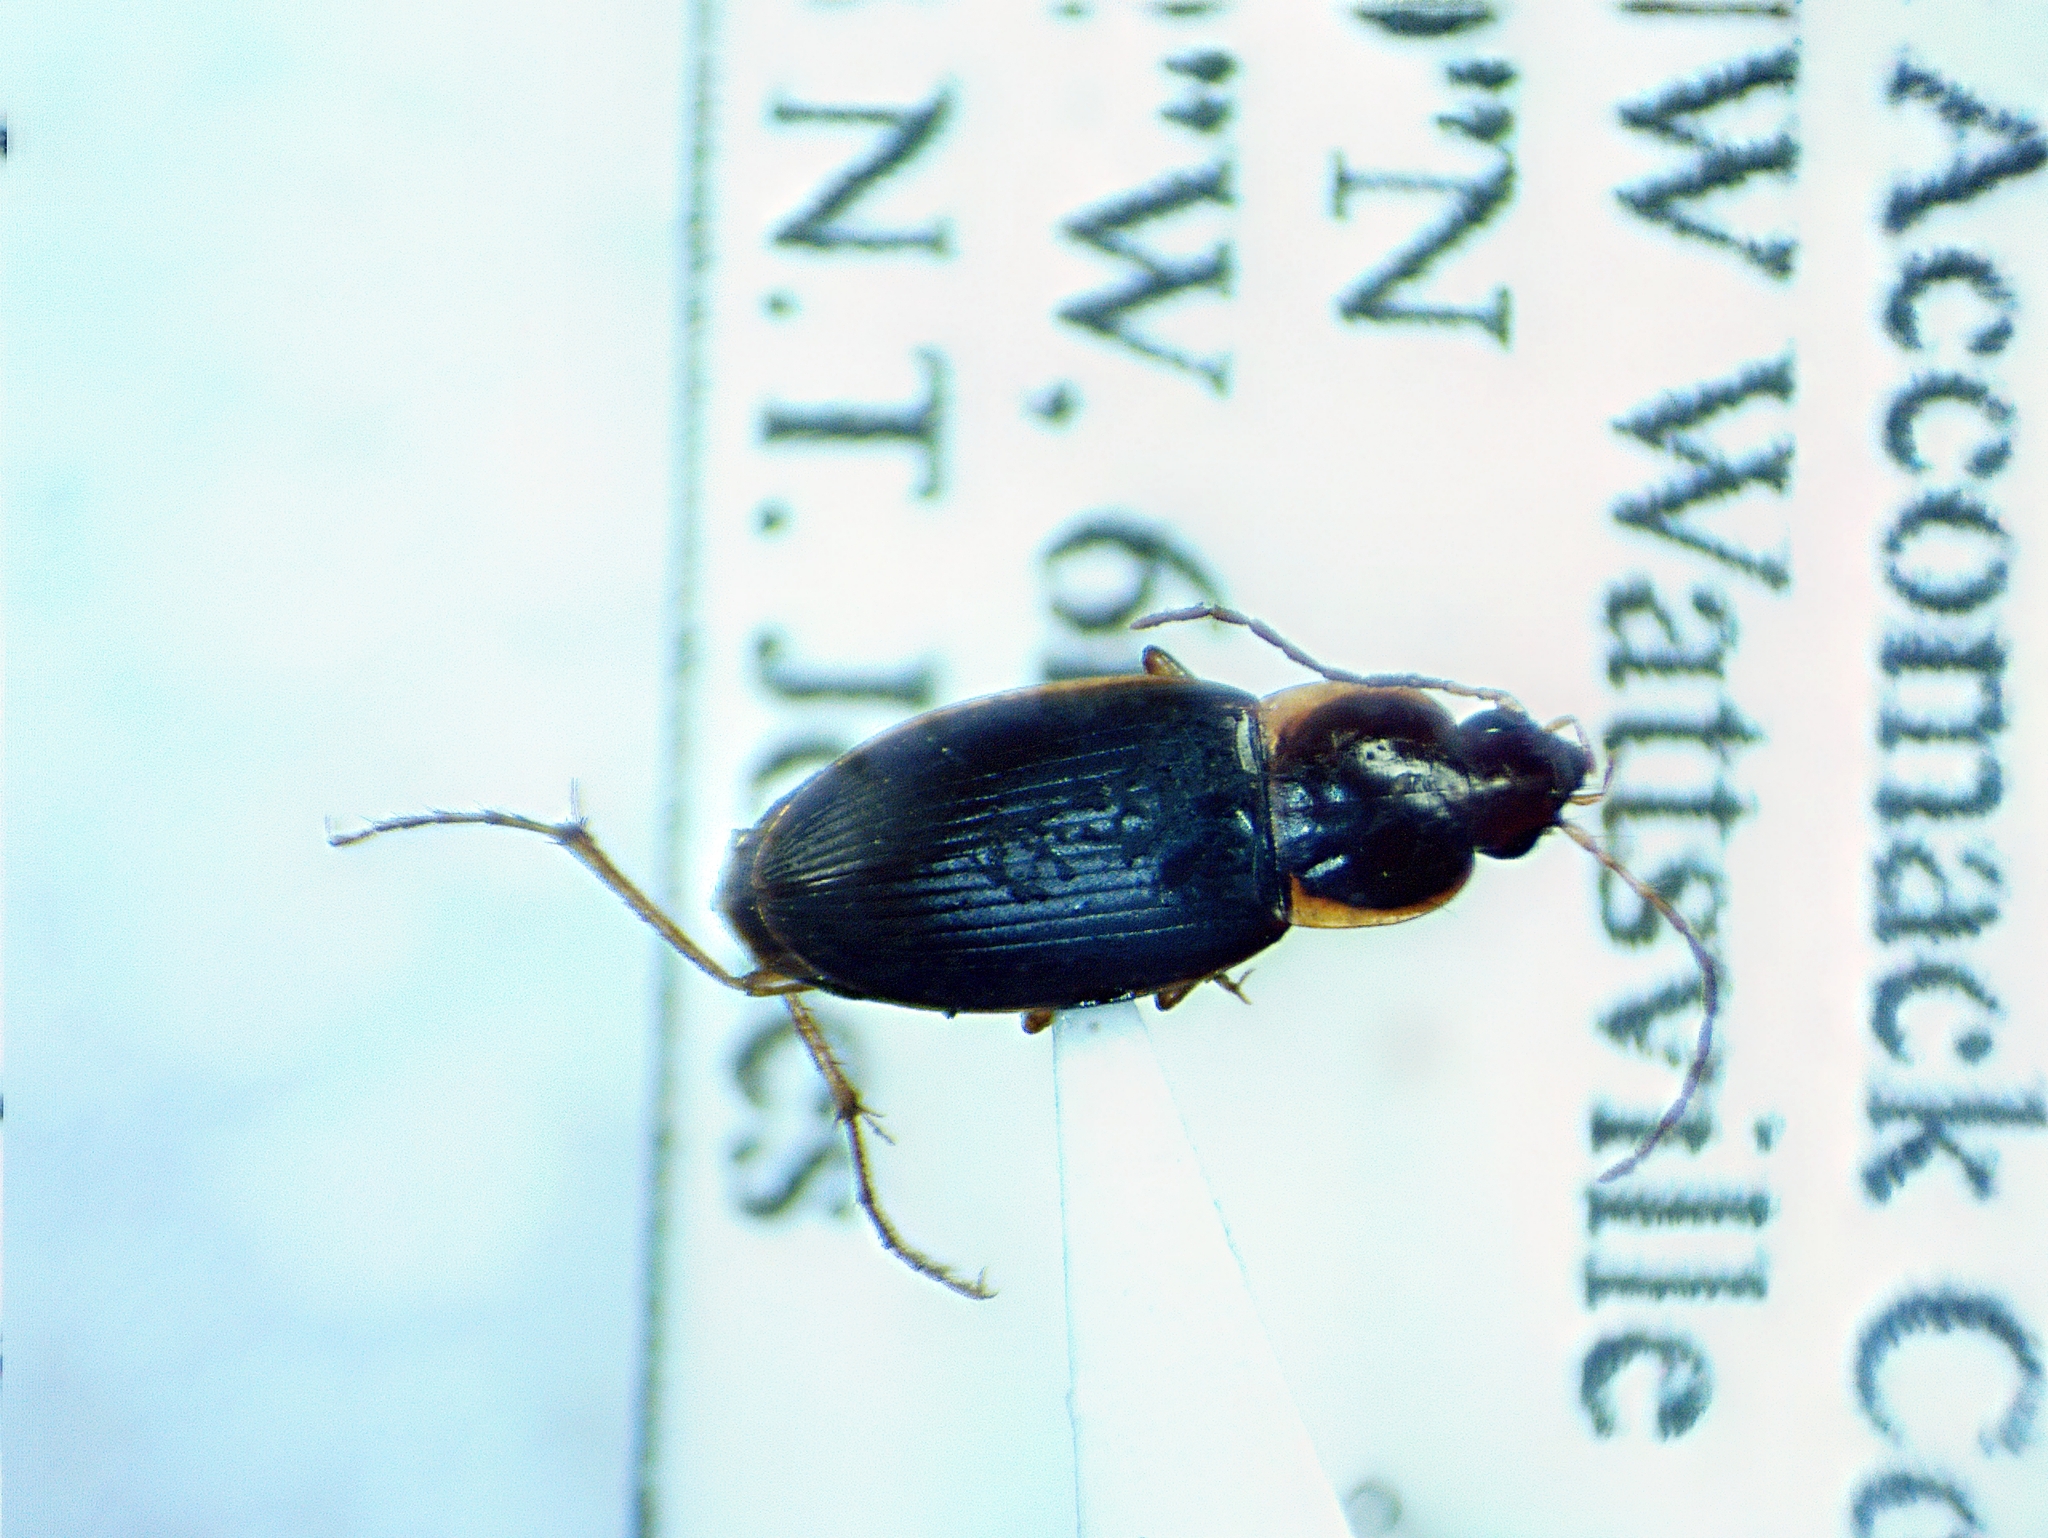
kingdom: Animalia
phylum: Arthropoda
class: Insecta
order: Coleoptera
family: Carabidae
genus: Calathus
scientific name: Calathus opaculus
